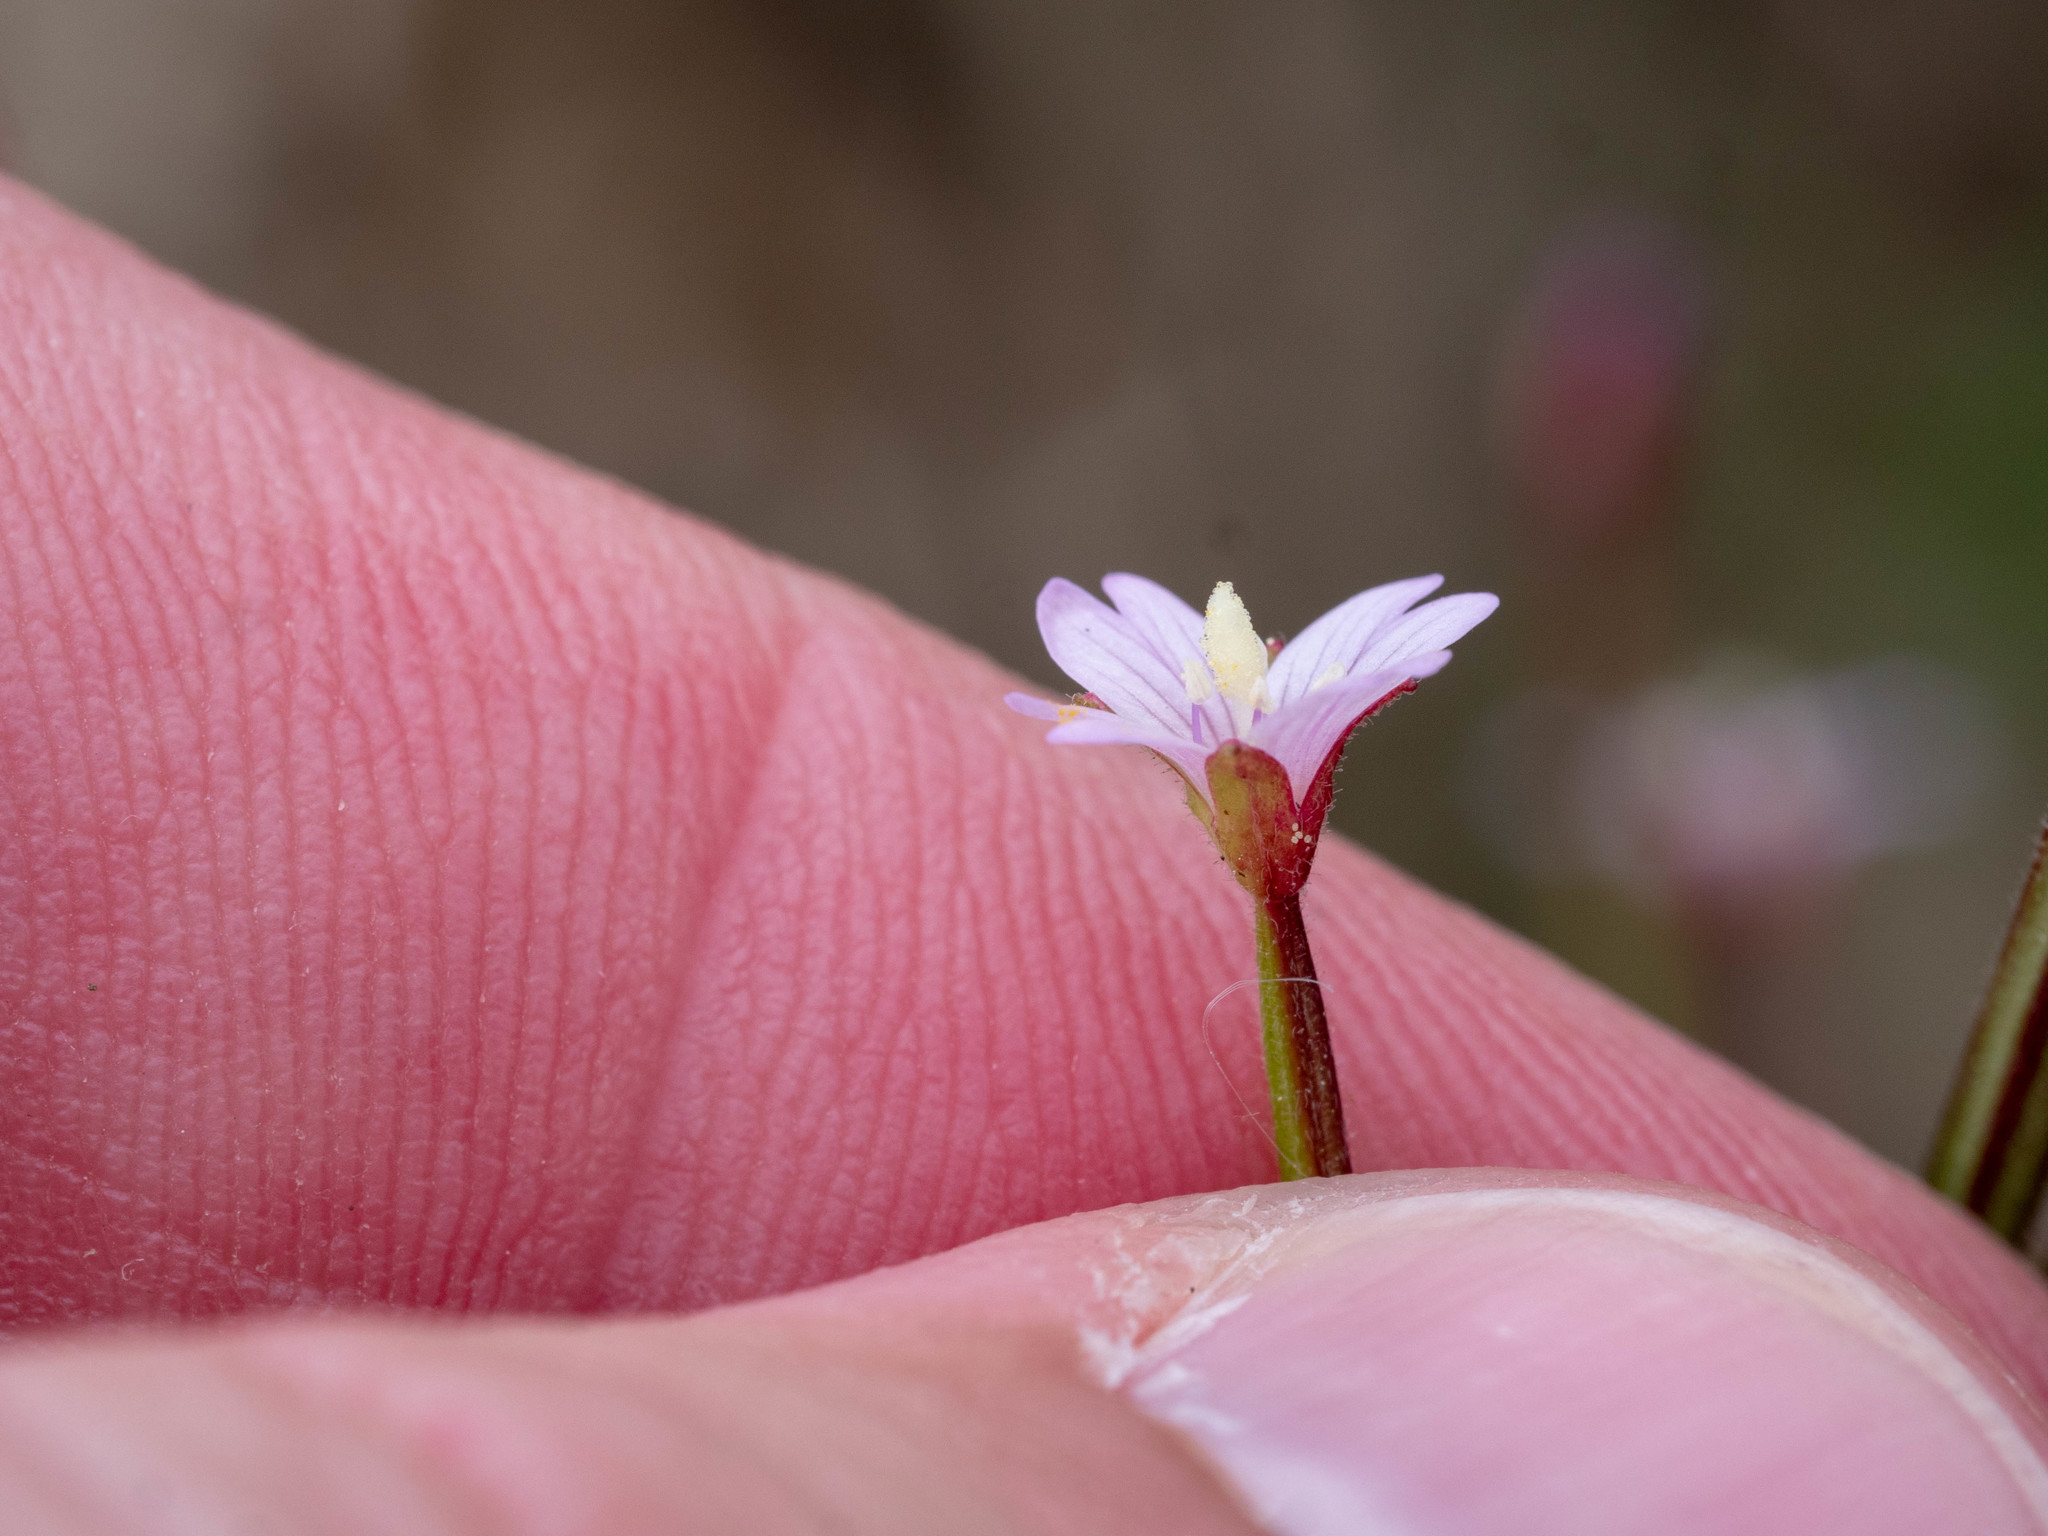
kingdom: Plantae
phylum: Tracheophyta
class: Magnoliopsida
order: Myrtales
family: Onagraceae
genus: Epilobium
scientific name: Epilobium ciliatum
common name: American willowherb
